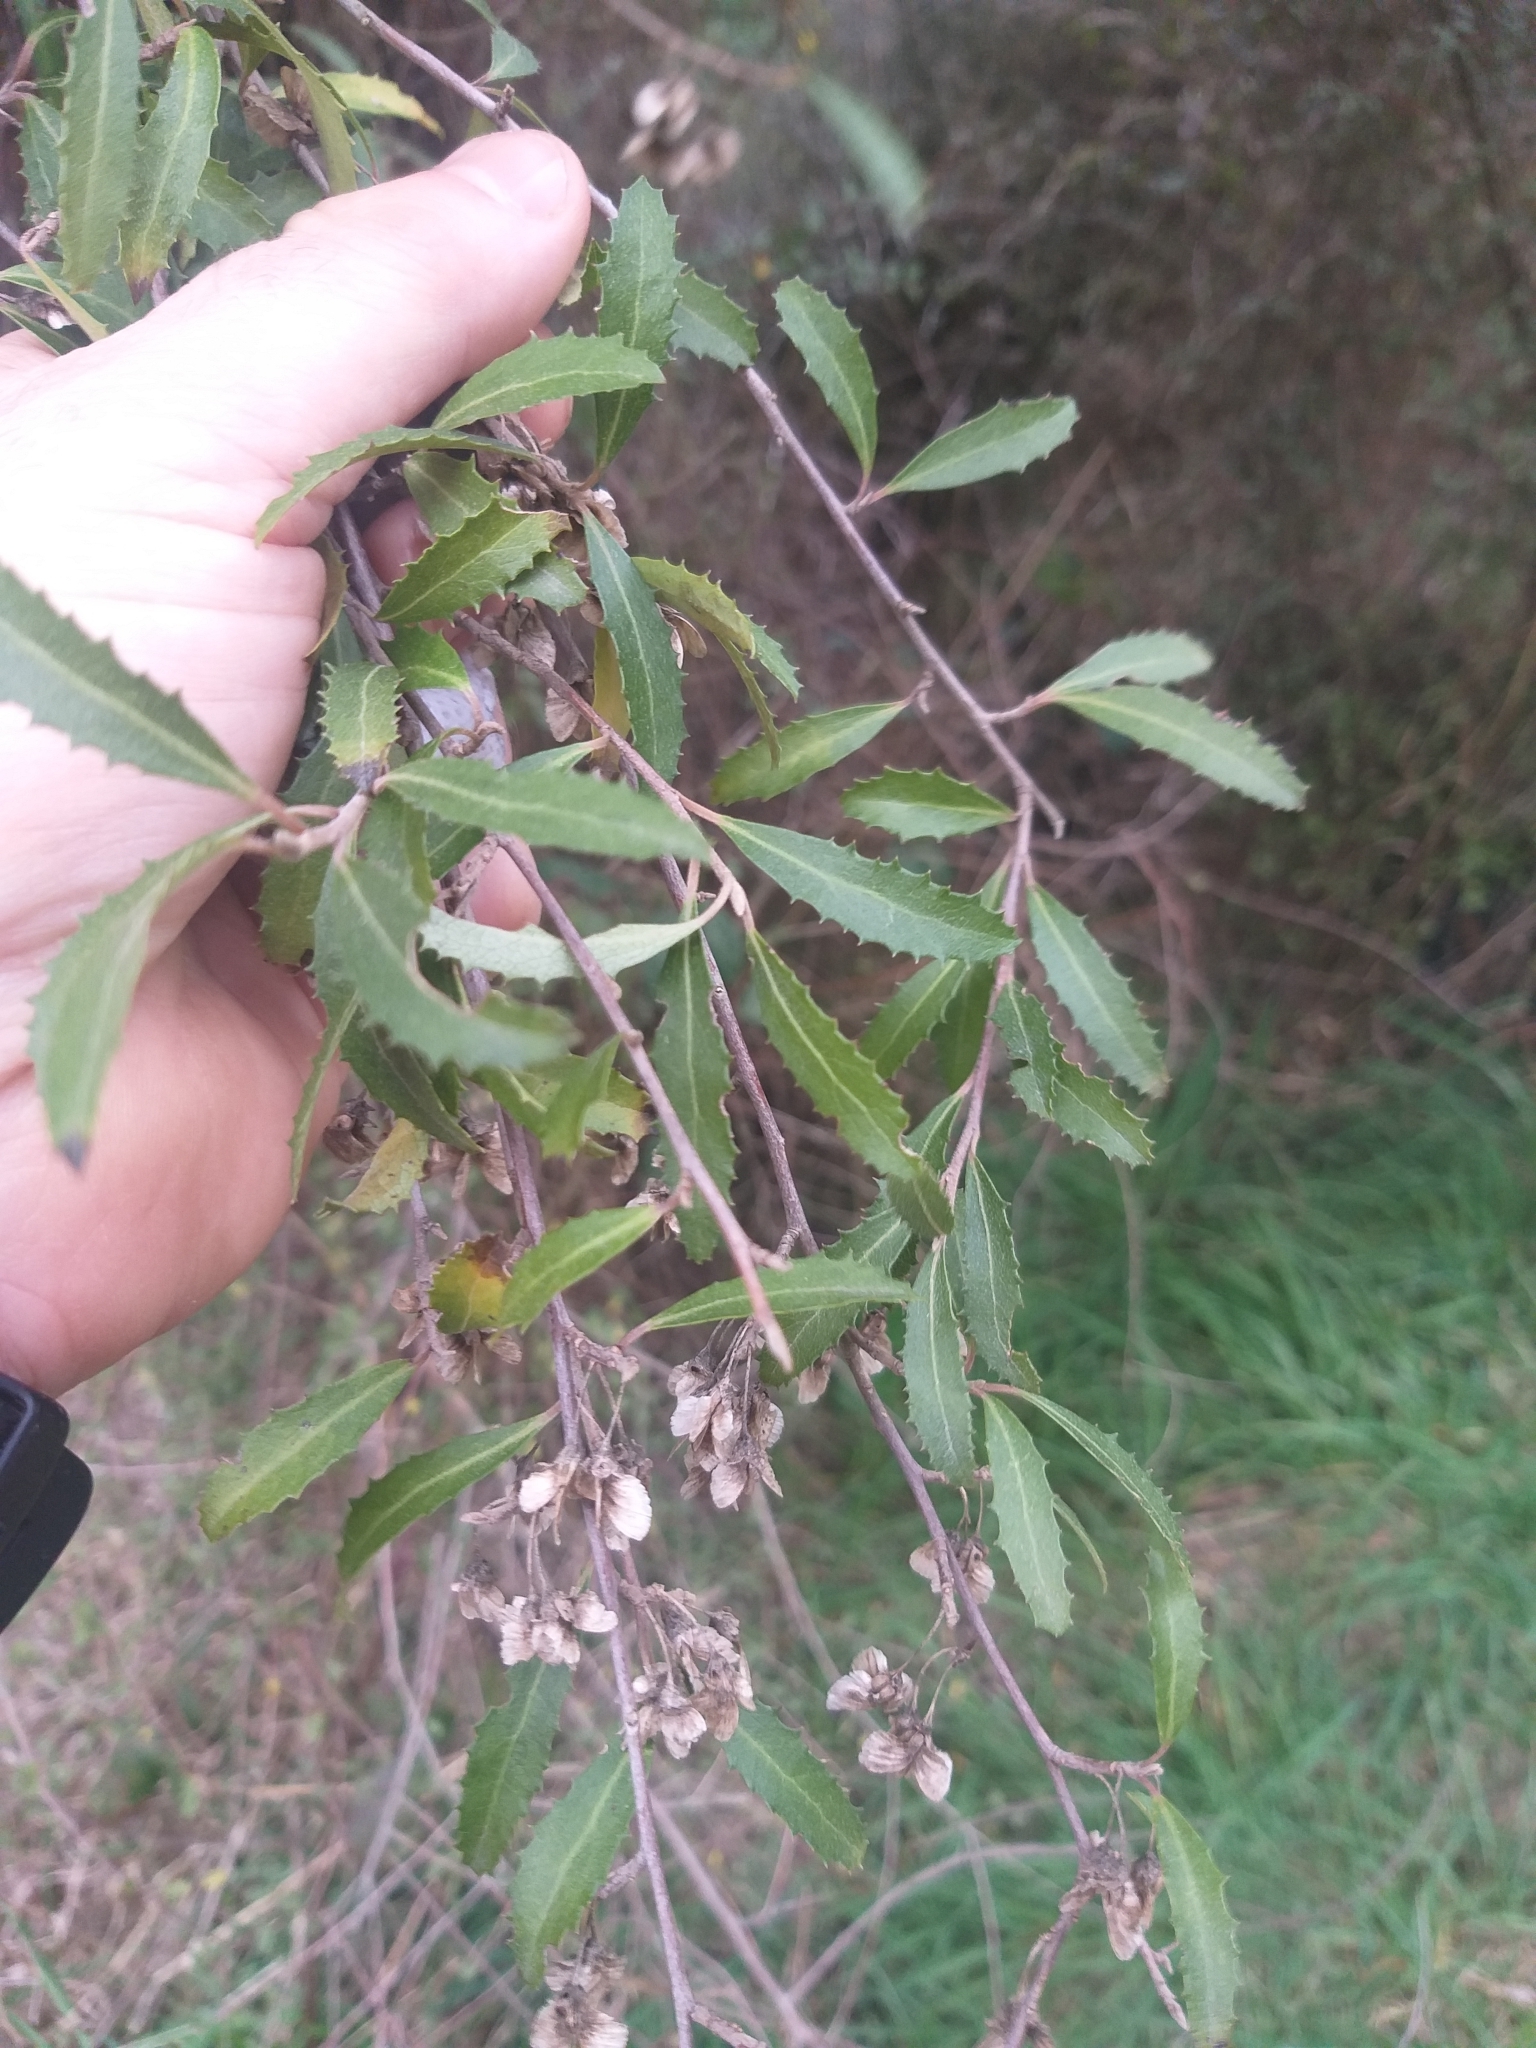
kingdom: Plantae
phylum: Tracheophyta
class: Magnoliopsida
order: Malvales
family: Malvaceae
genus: Hoheria
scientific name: Hoheria angustifolia
